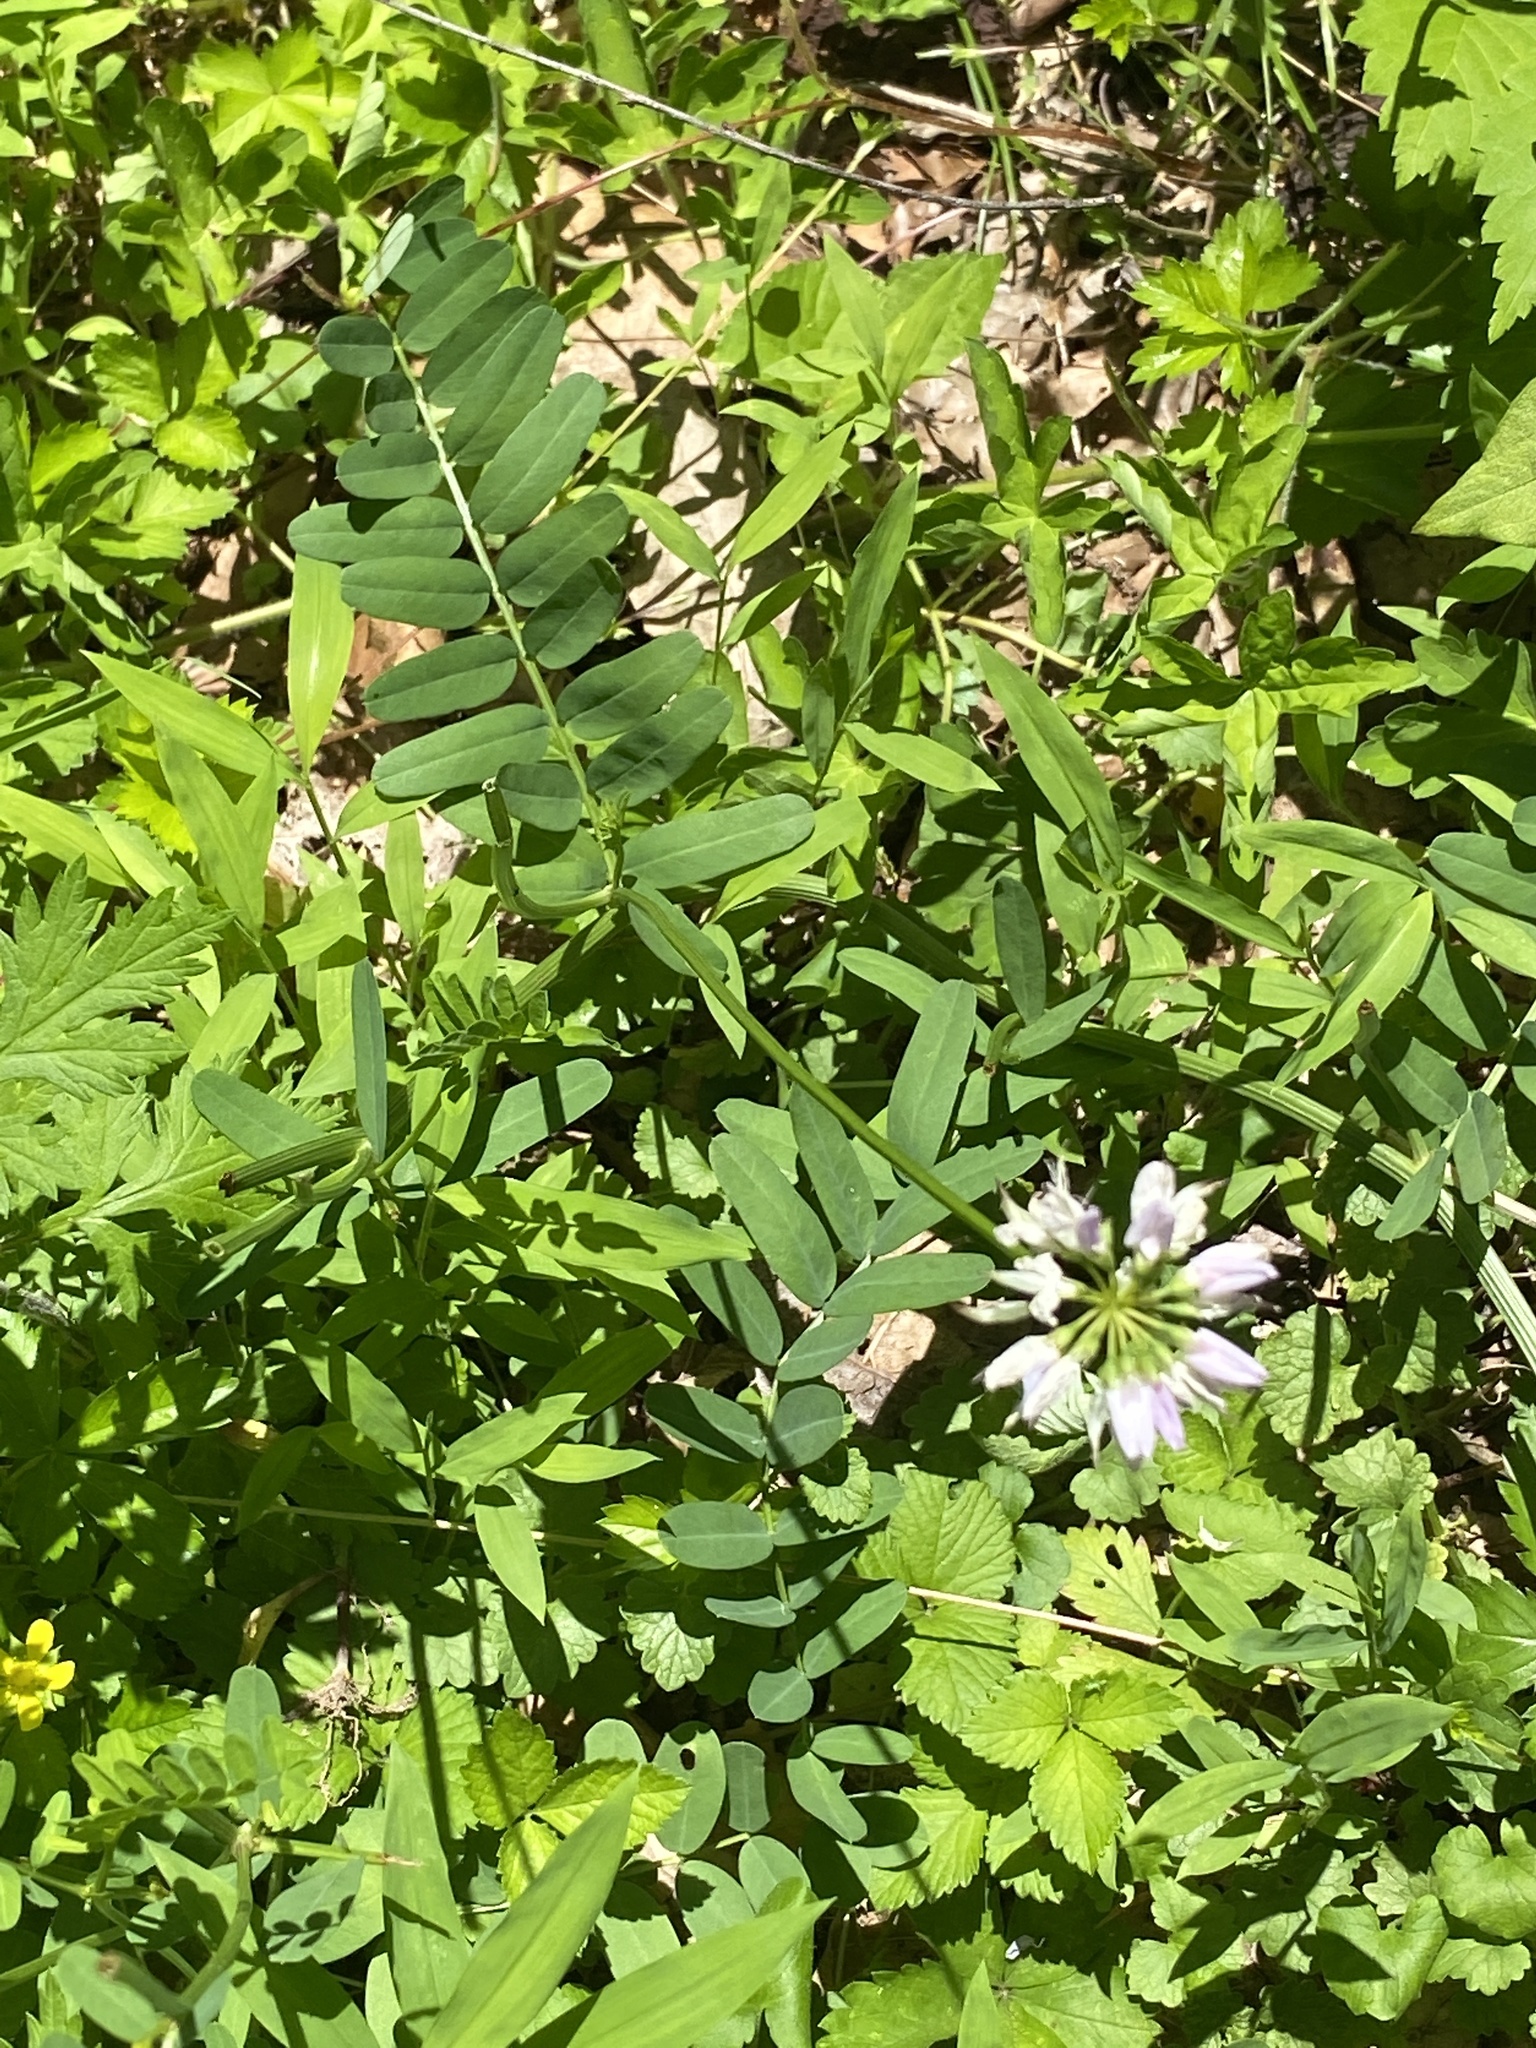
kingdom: Plantae
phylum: Tracheophyta
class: Magnoliopsida
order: Fabales
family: Fabaceae
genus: Coronilla
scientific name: Coronilla varia
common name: Crownvetch
